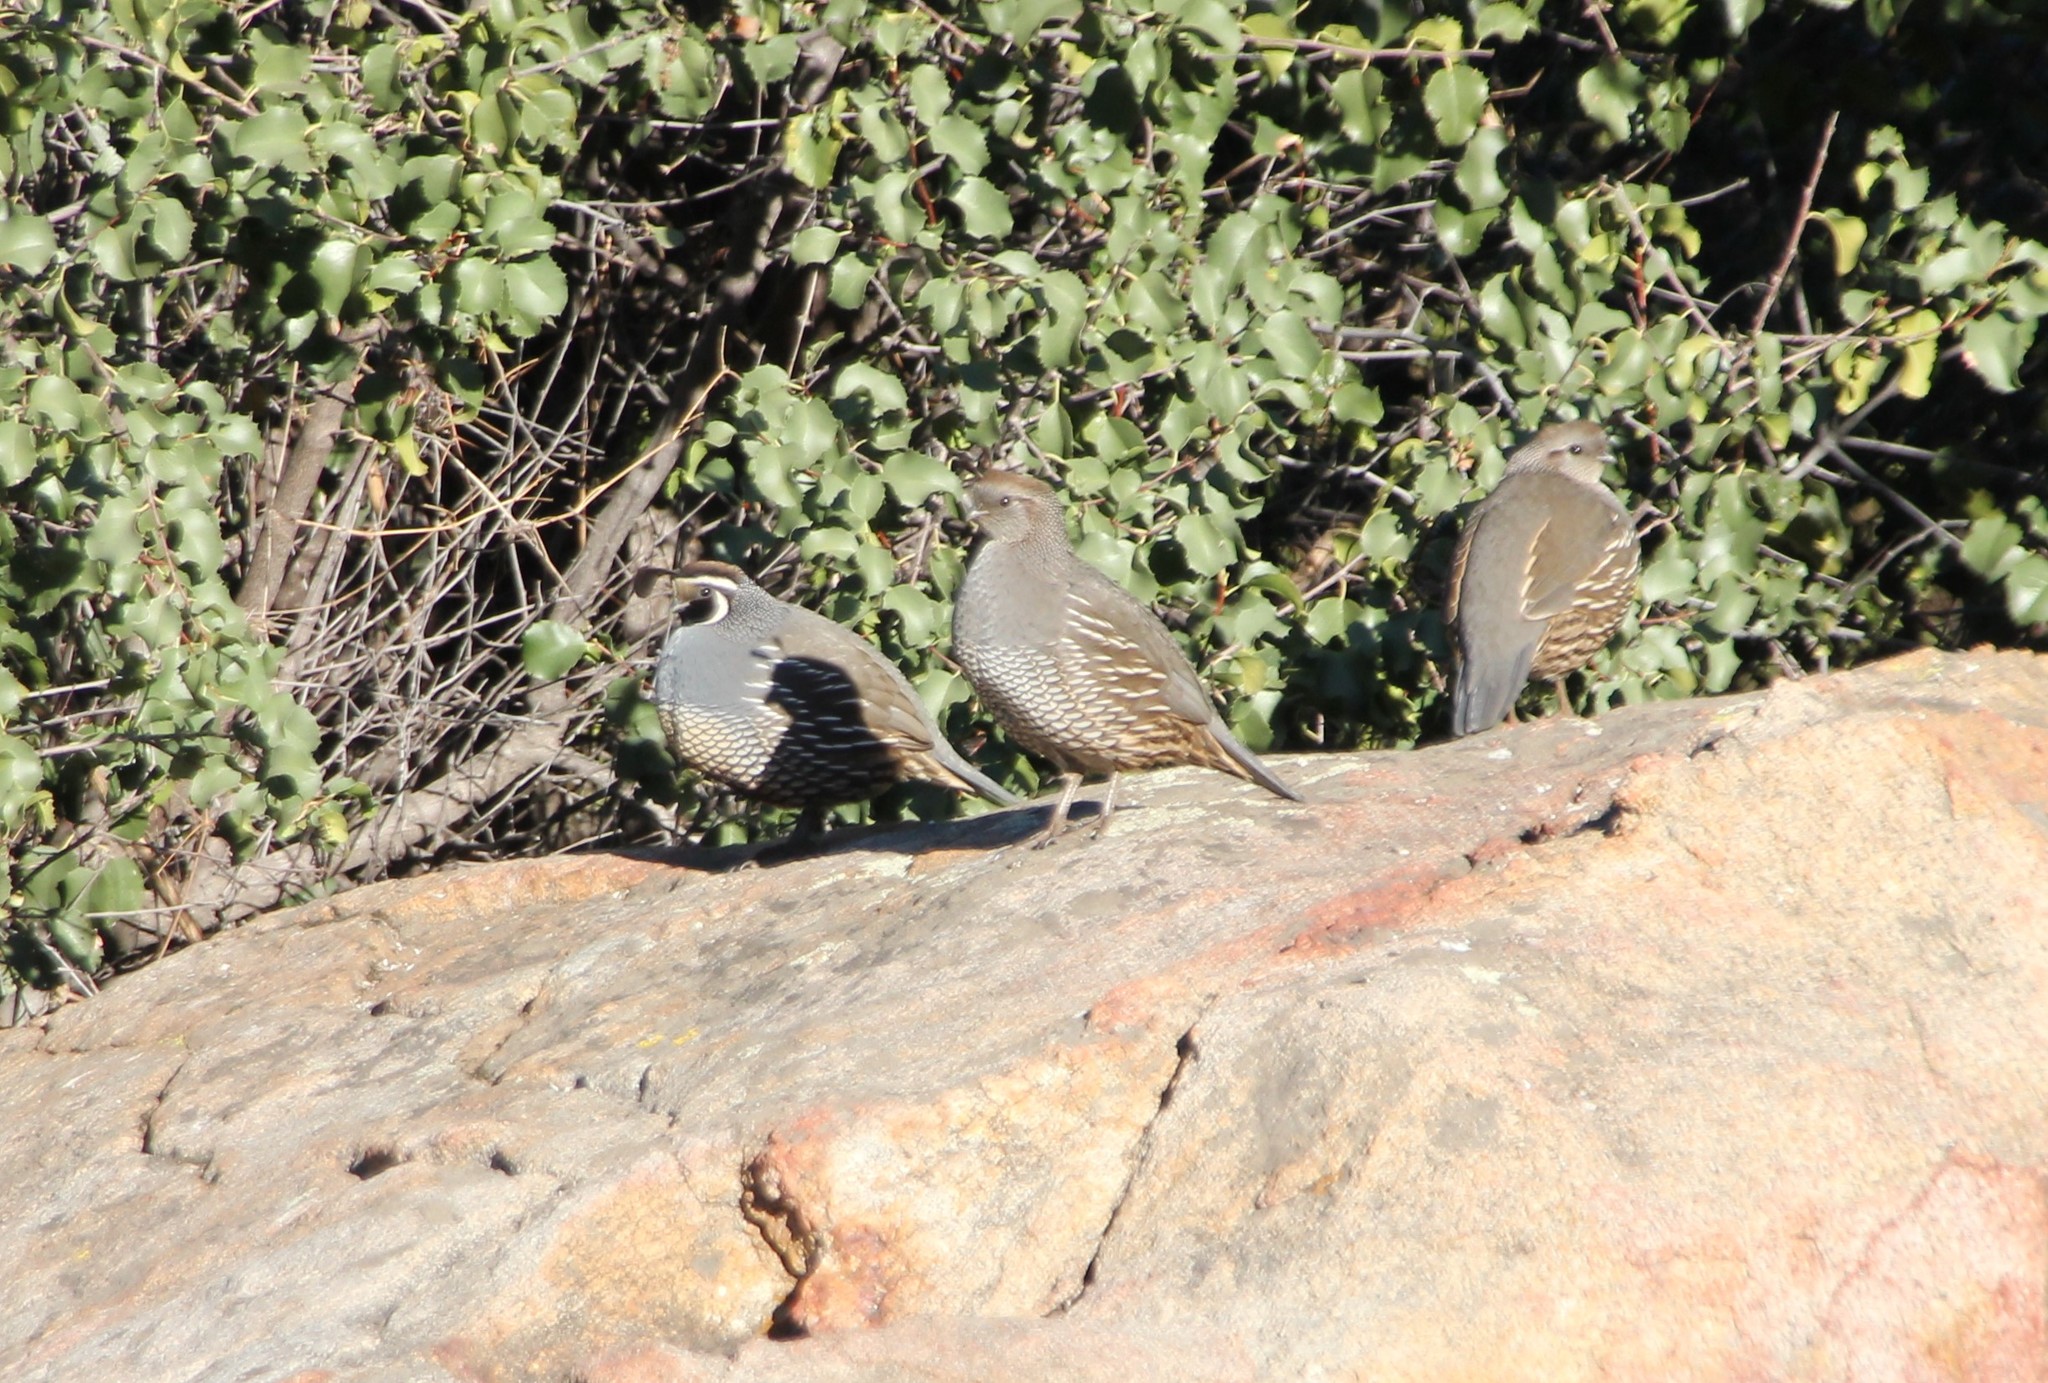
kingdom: Animalia
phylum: Chordata
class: Aves
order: Galliformes
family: Odontophoridae
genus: Callipepla
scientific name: Callipepla californica
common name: California quail
